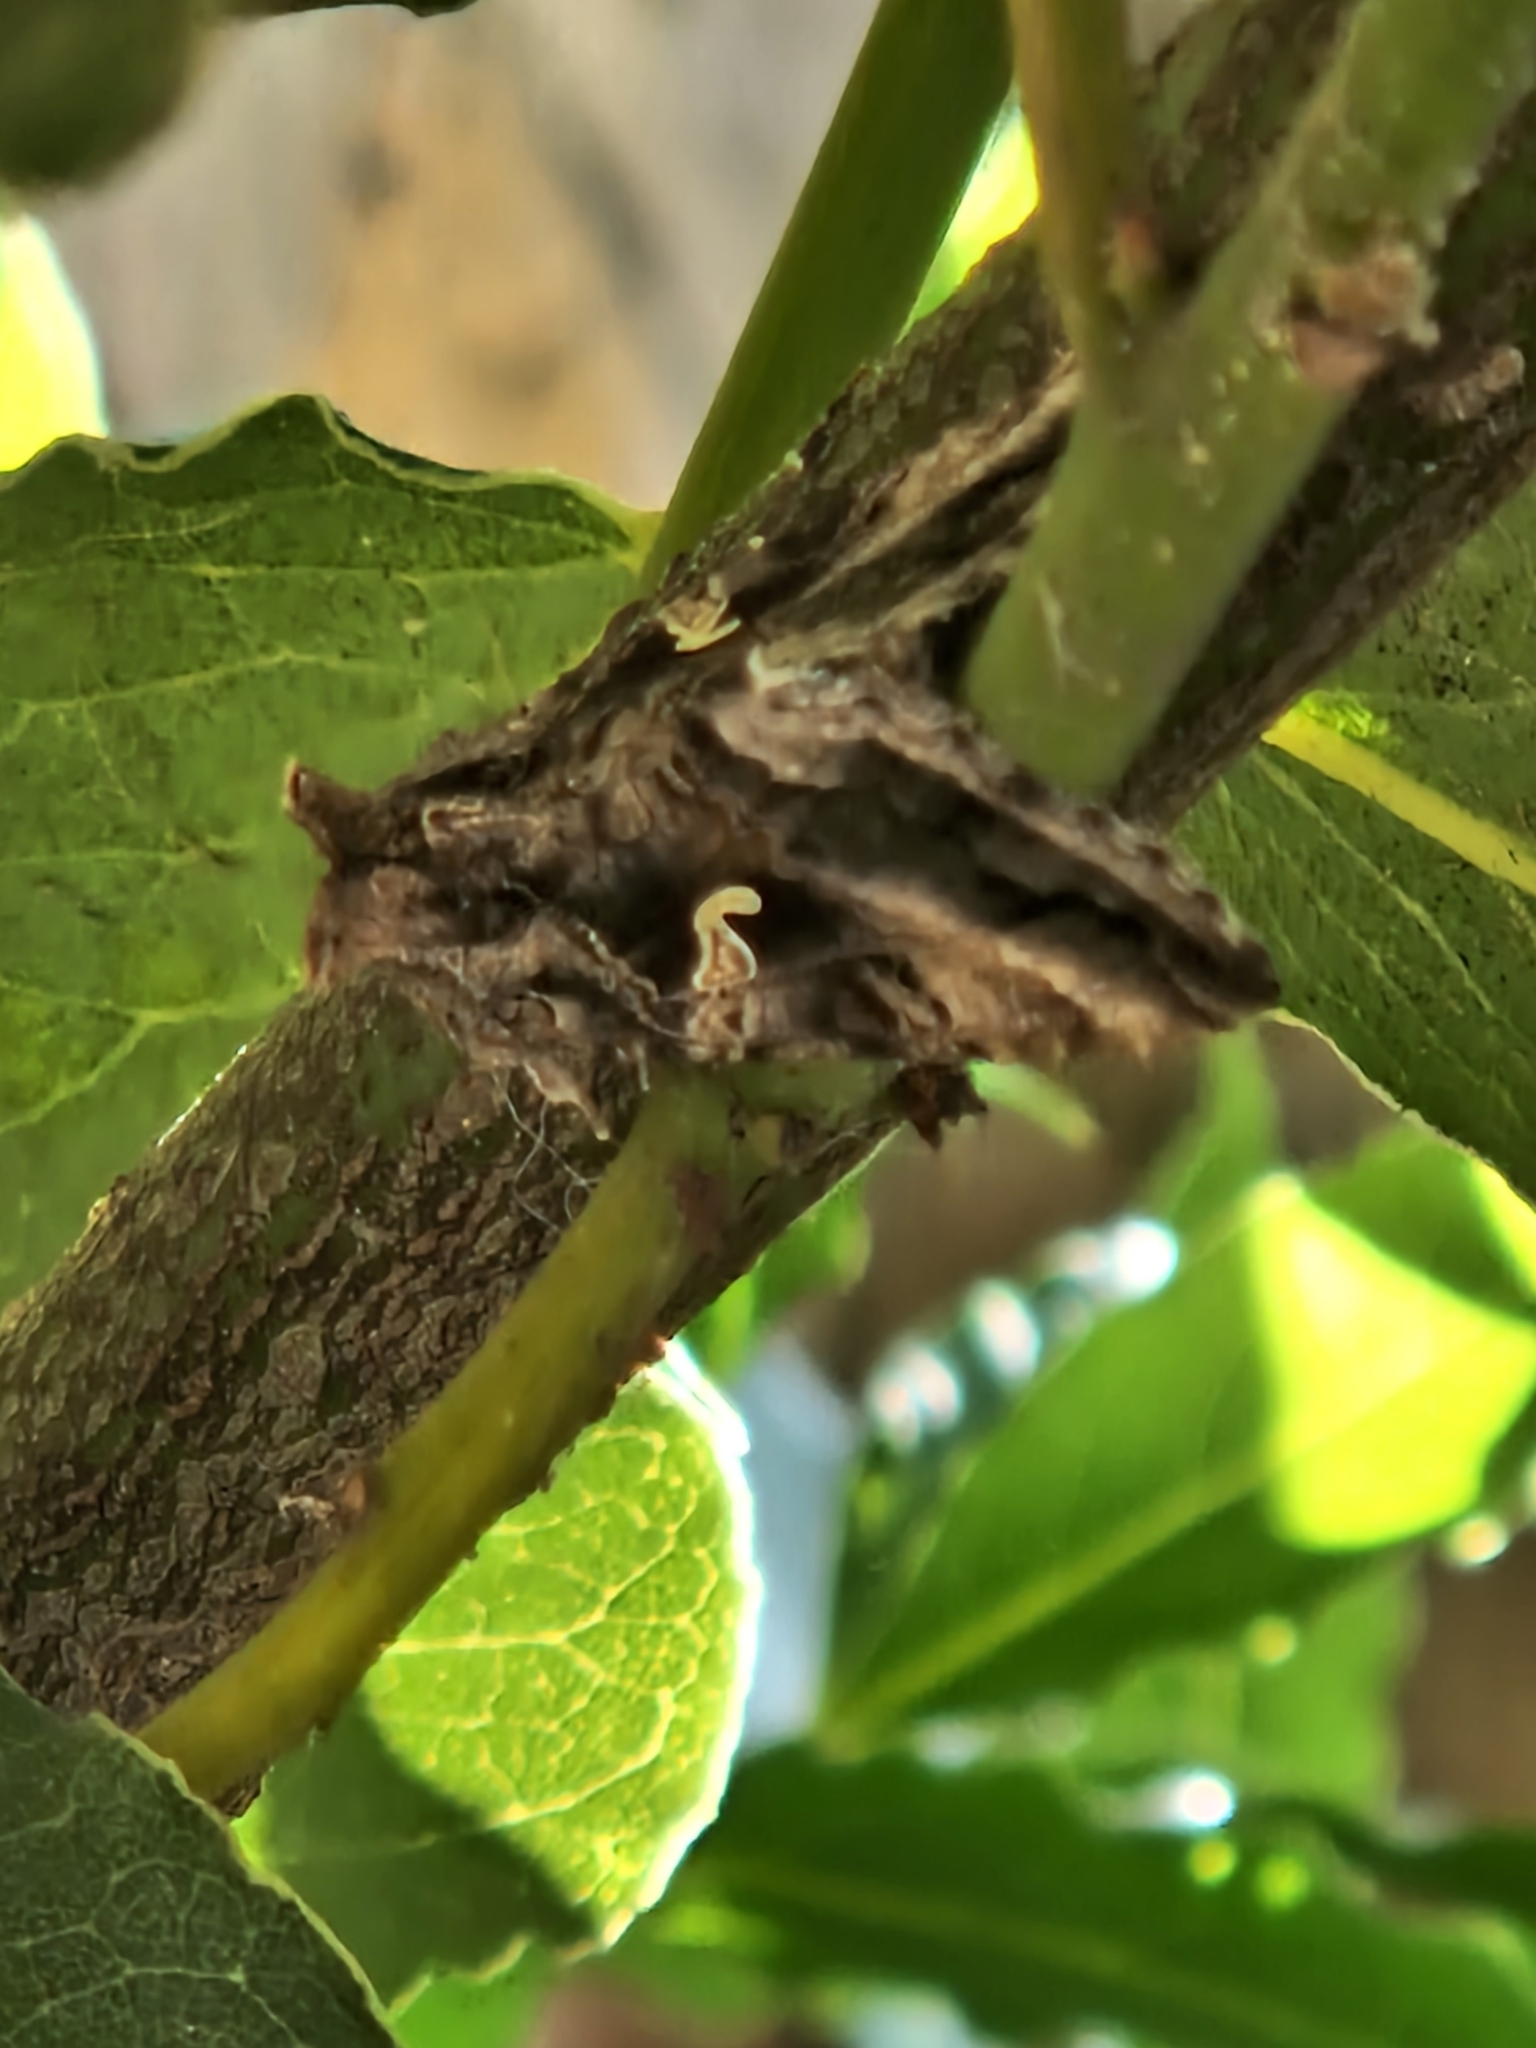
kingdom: Animalia
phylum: Arthropoda
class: Insecta
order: Lepidoptera
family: Noctuidae
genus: Autographa
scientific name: Autographa gamma
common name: Silver y
